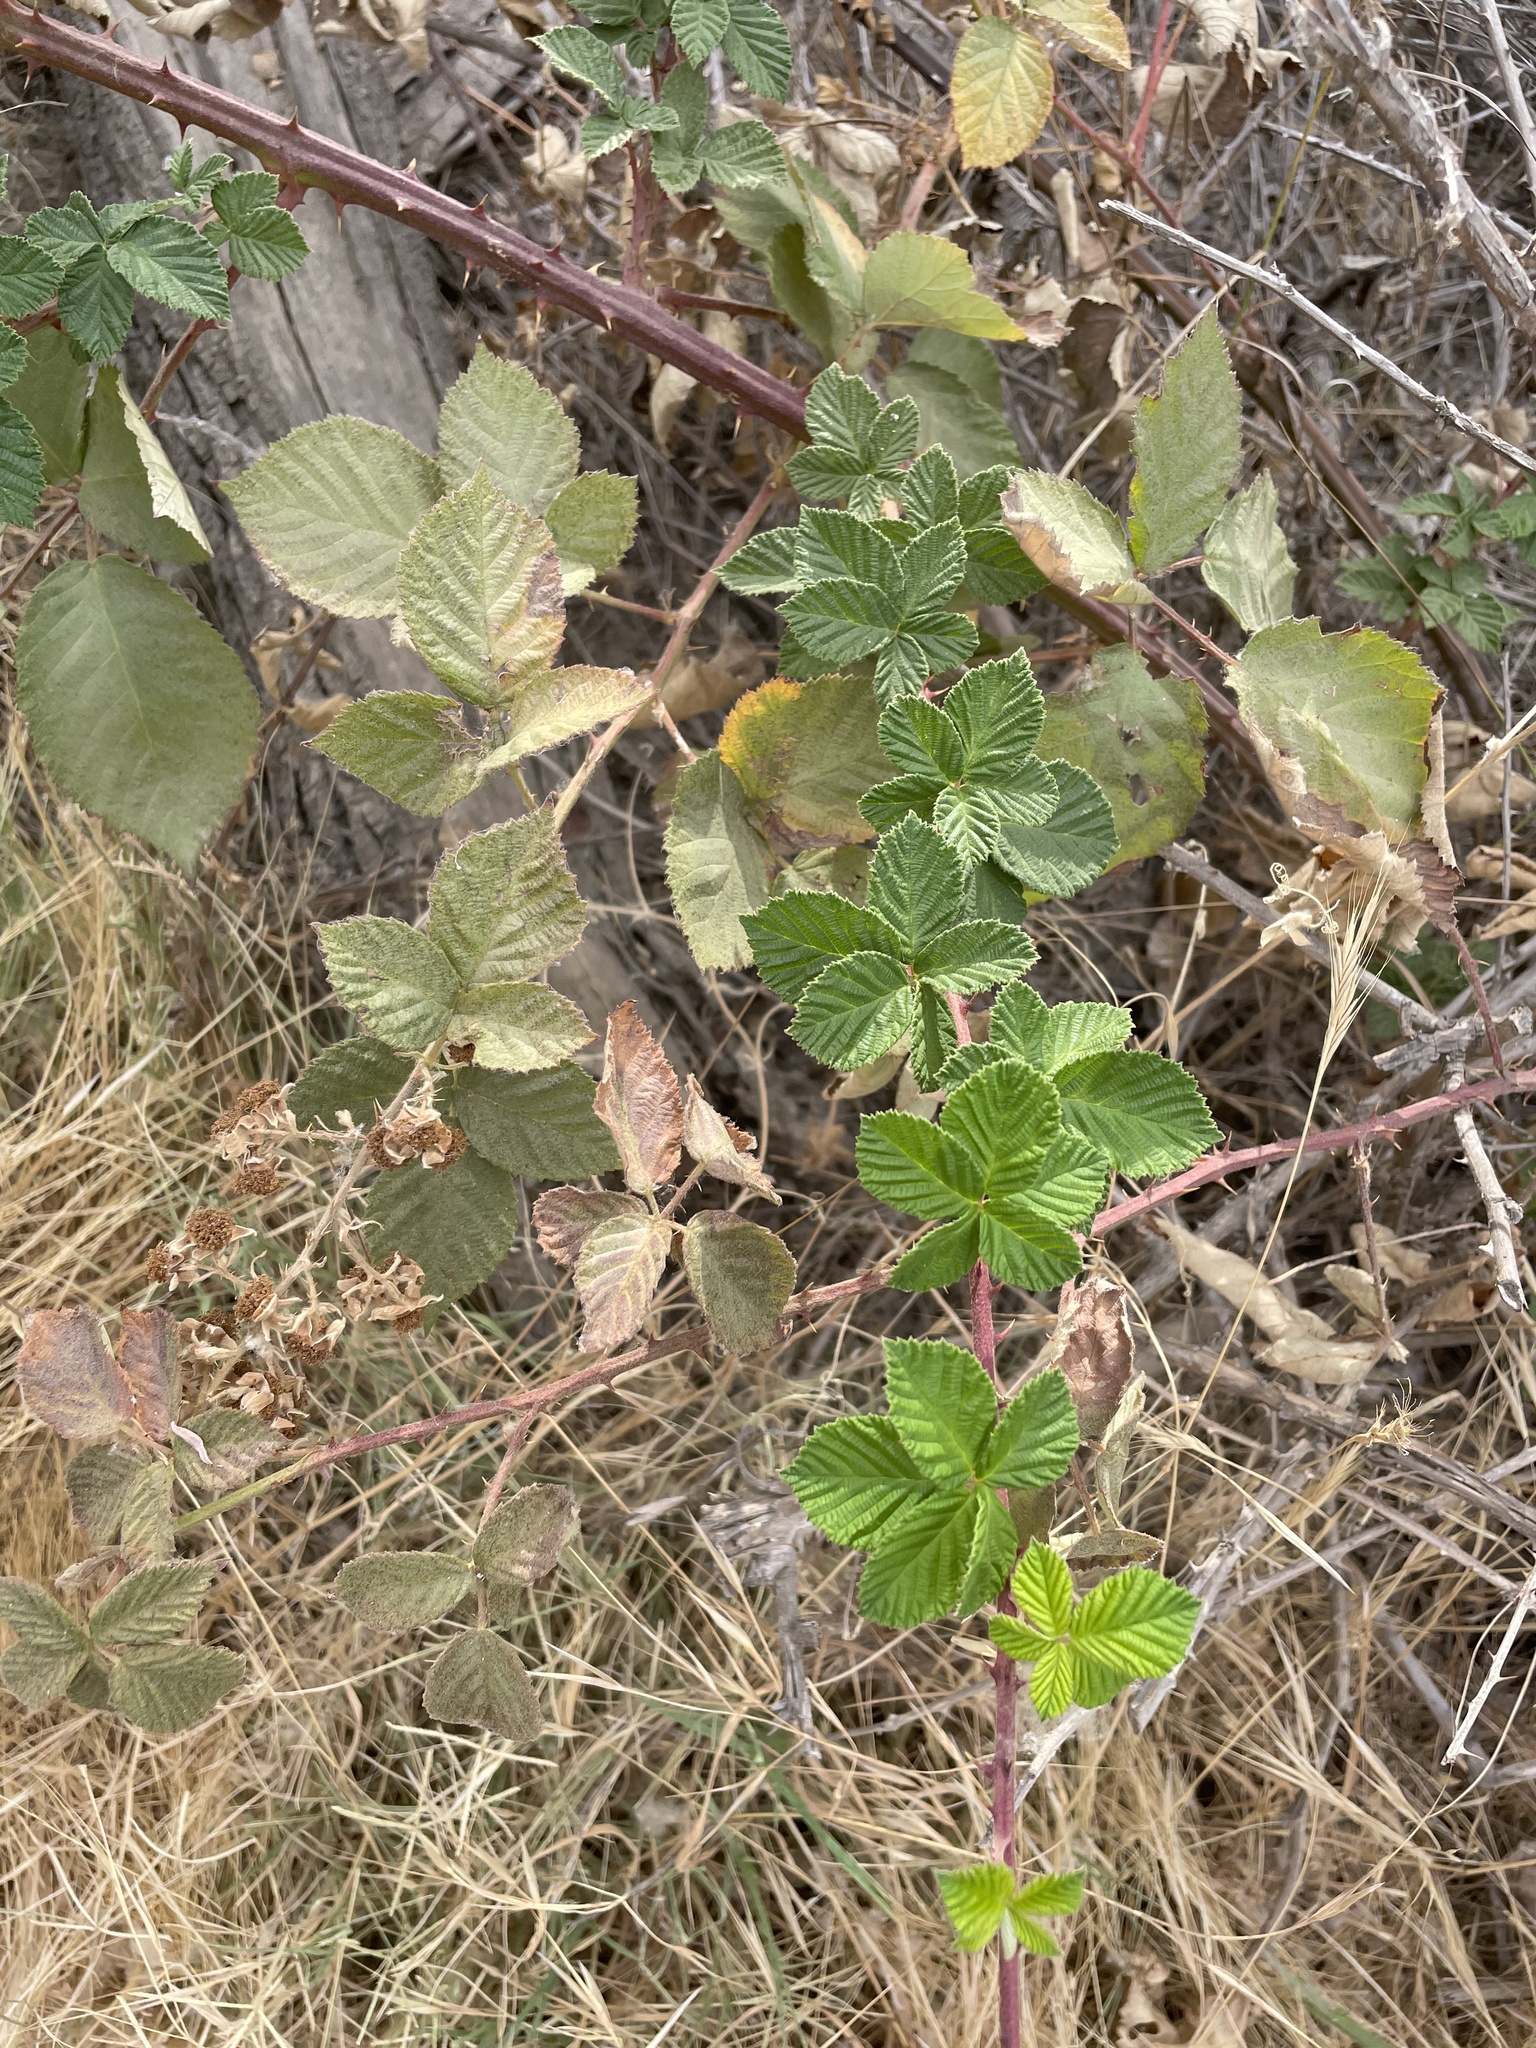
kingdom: Plantae
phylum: Tracheophyta
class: Magnoliopsida
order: Rosales
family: Rosaceae
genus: Rubus
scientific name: Rubus armeniacus
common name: Himalayan blackberry
